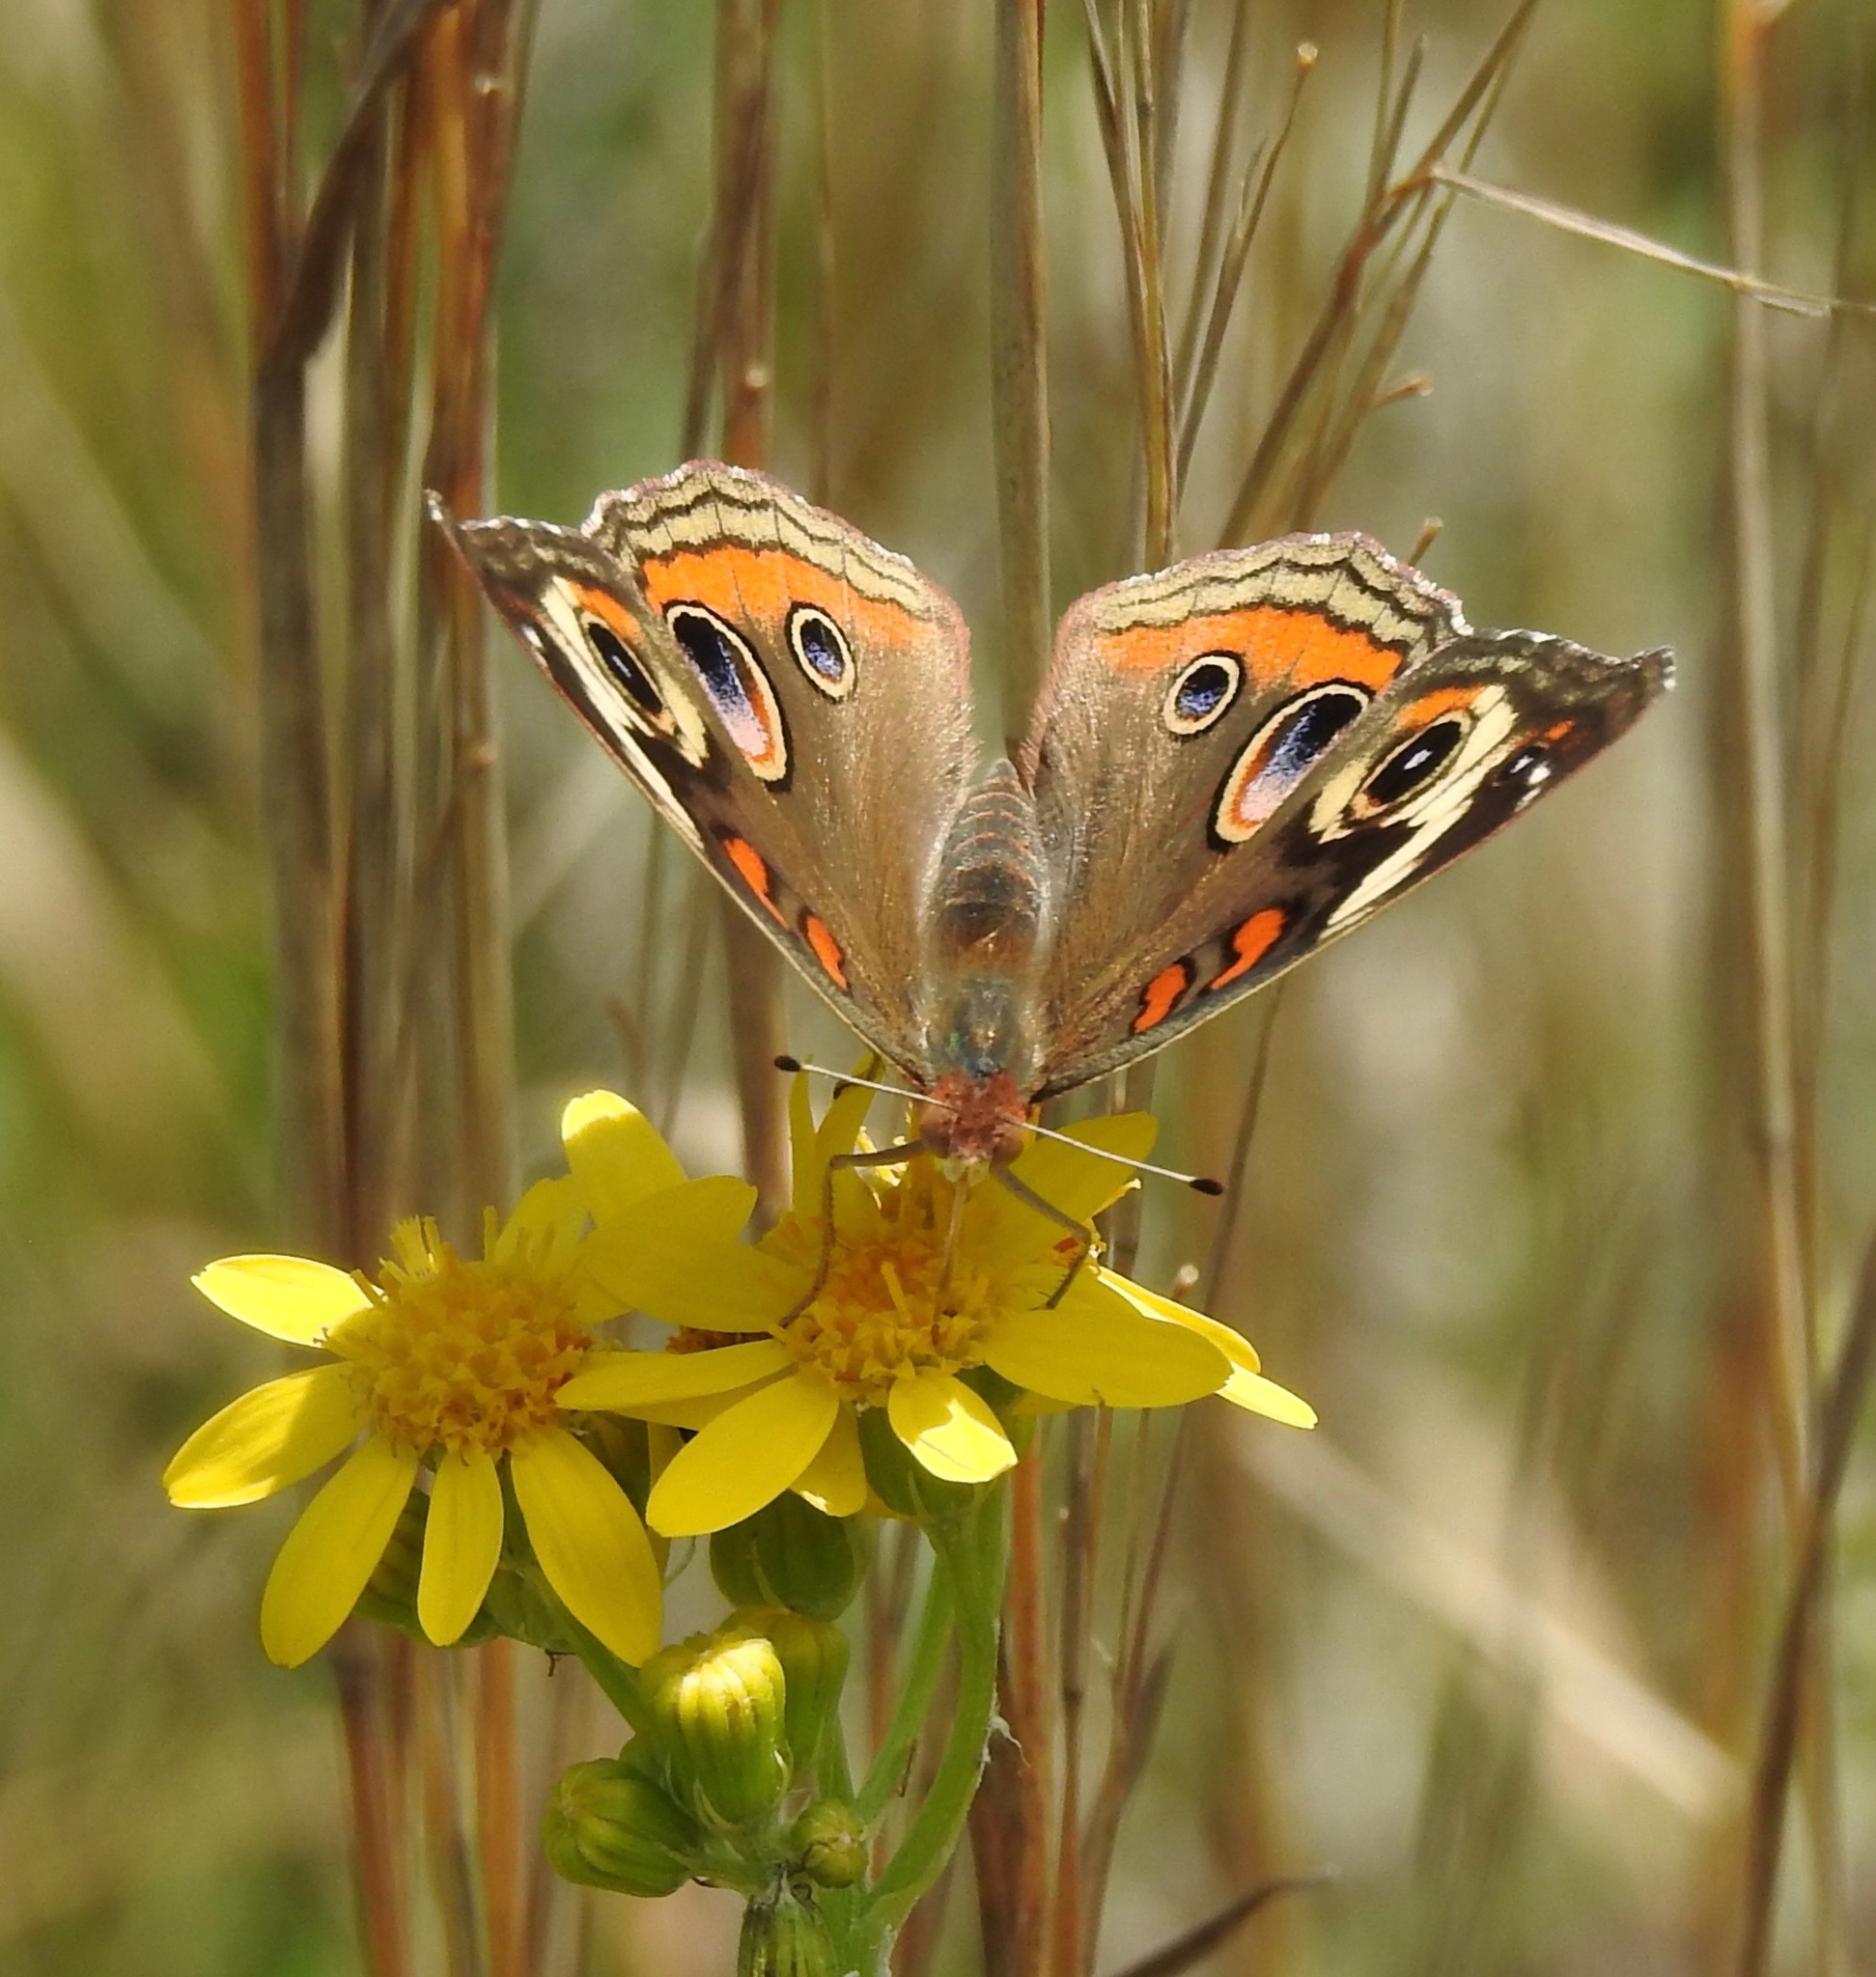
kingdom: Animalia
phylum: Arthropoda
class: Insecta
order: Lepidoptera
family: Nymphalidae
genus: Junonia
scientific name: Junonia coenia
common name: Common buckeye
